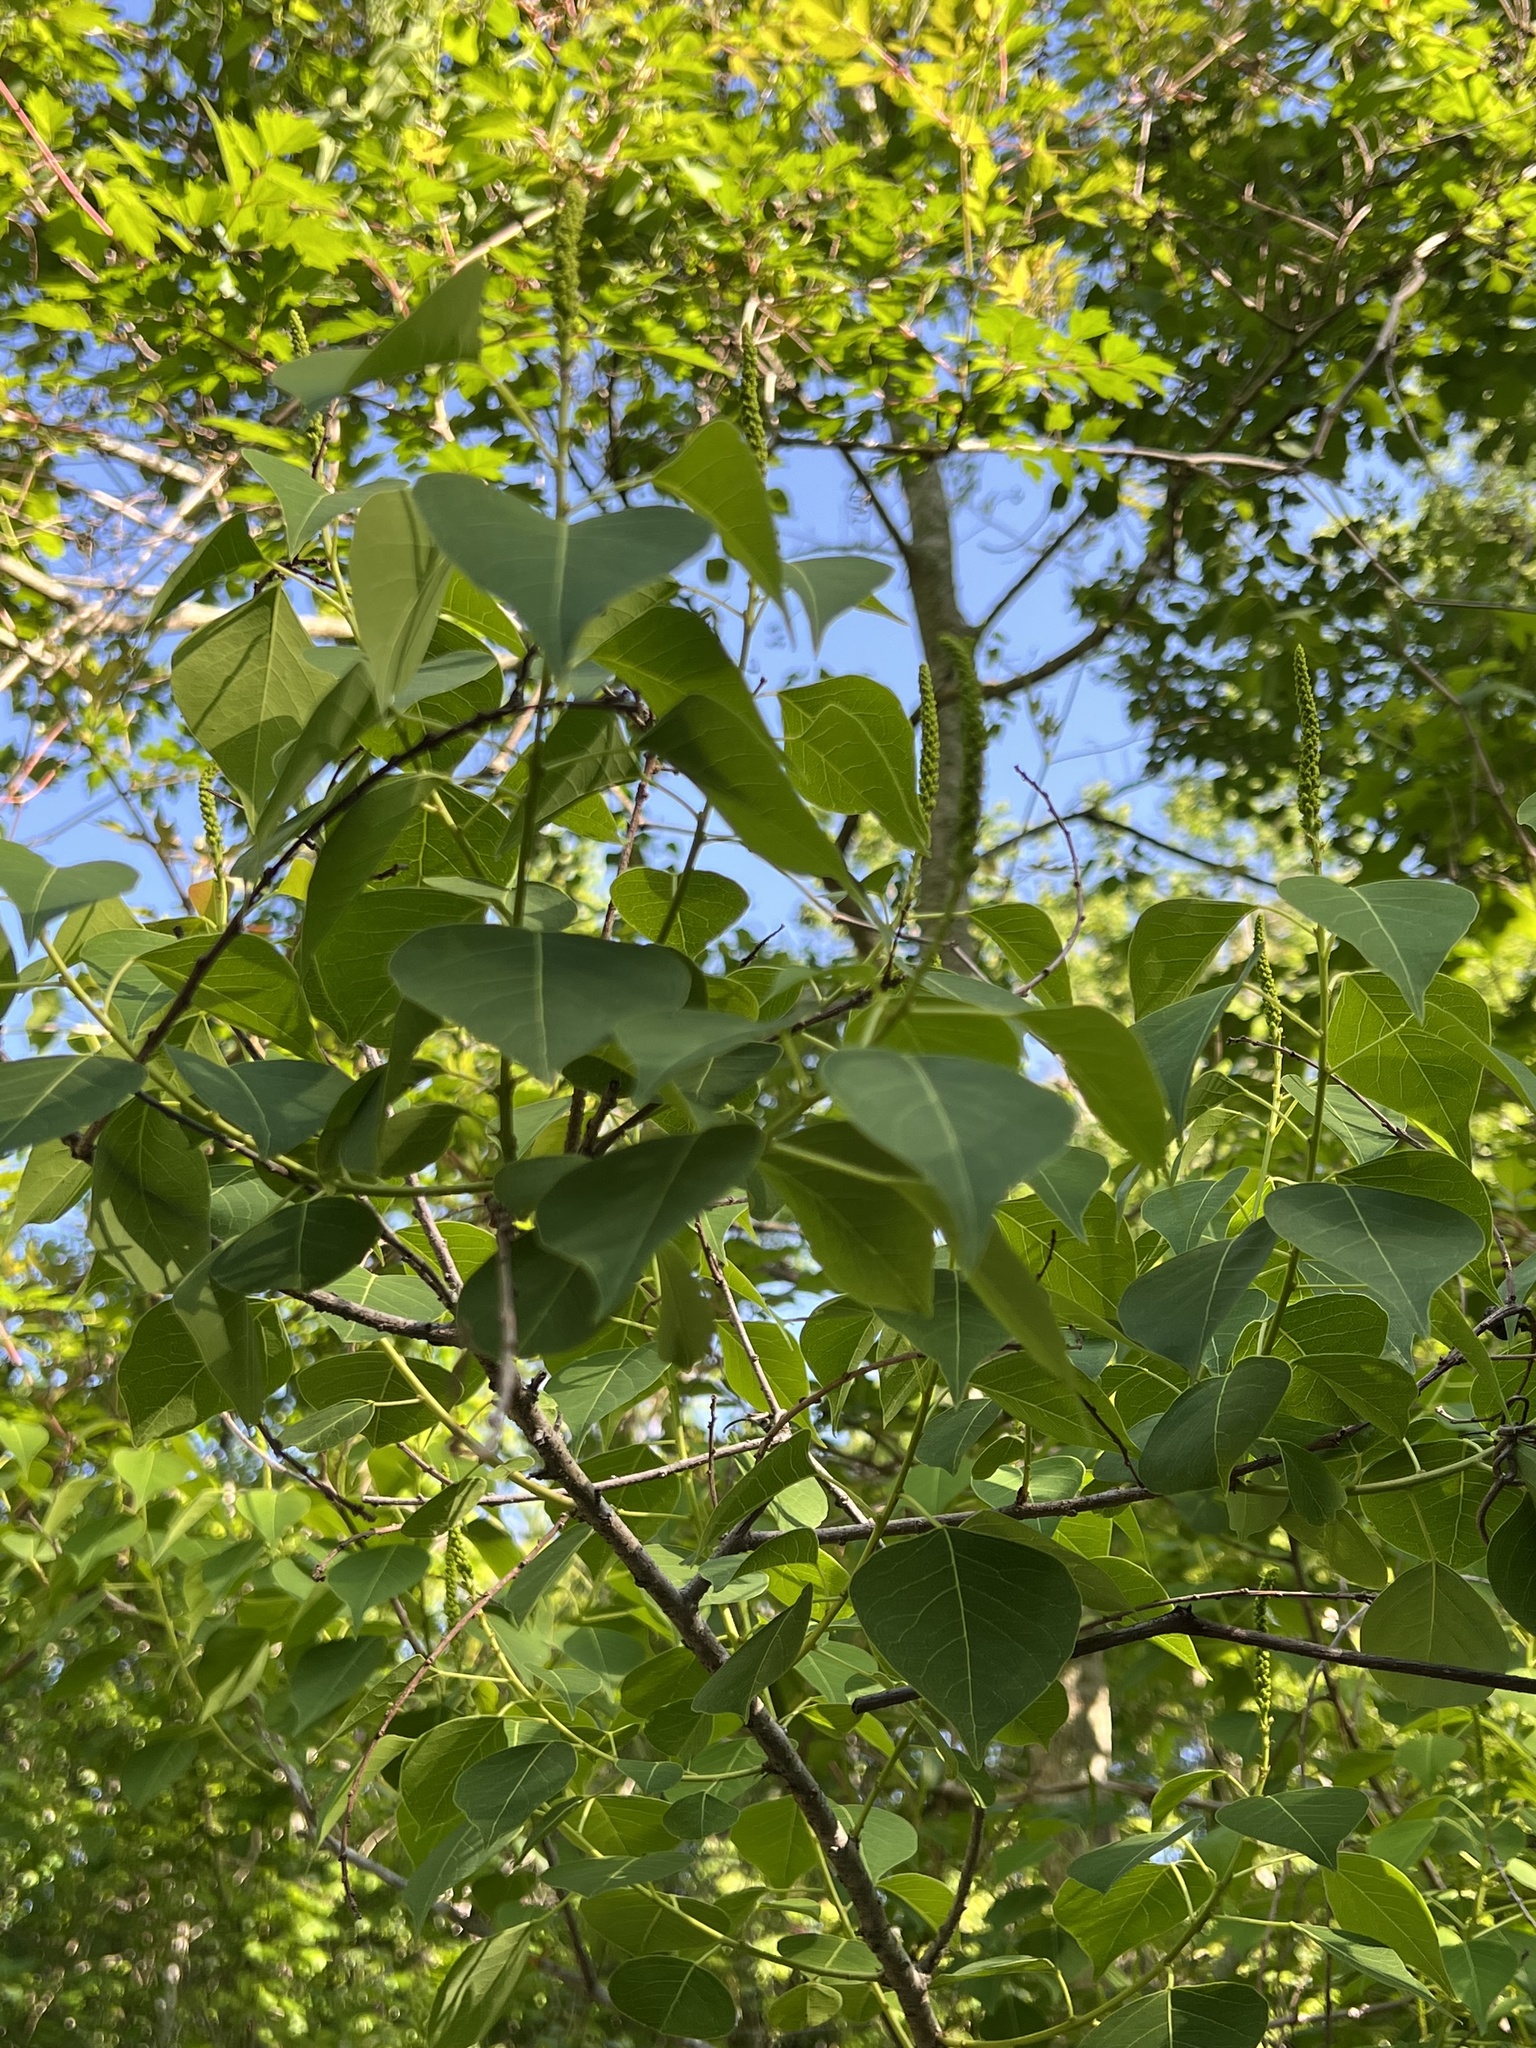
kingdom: Plantae
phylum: Tracheophyta
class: Magnoliopsida
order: Malpighiales
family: Euphorbiaceae
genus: Triadica
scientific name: Triadica sebifera
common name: Chinese tallow
